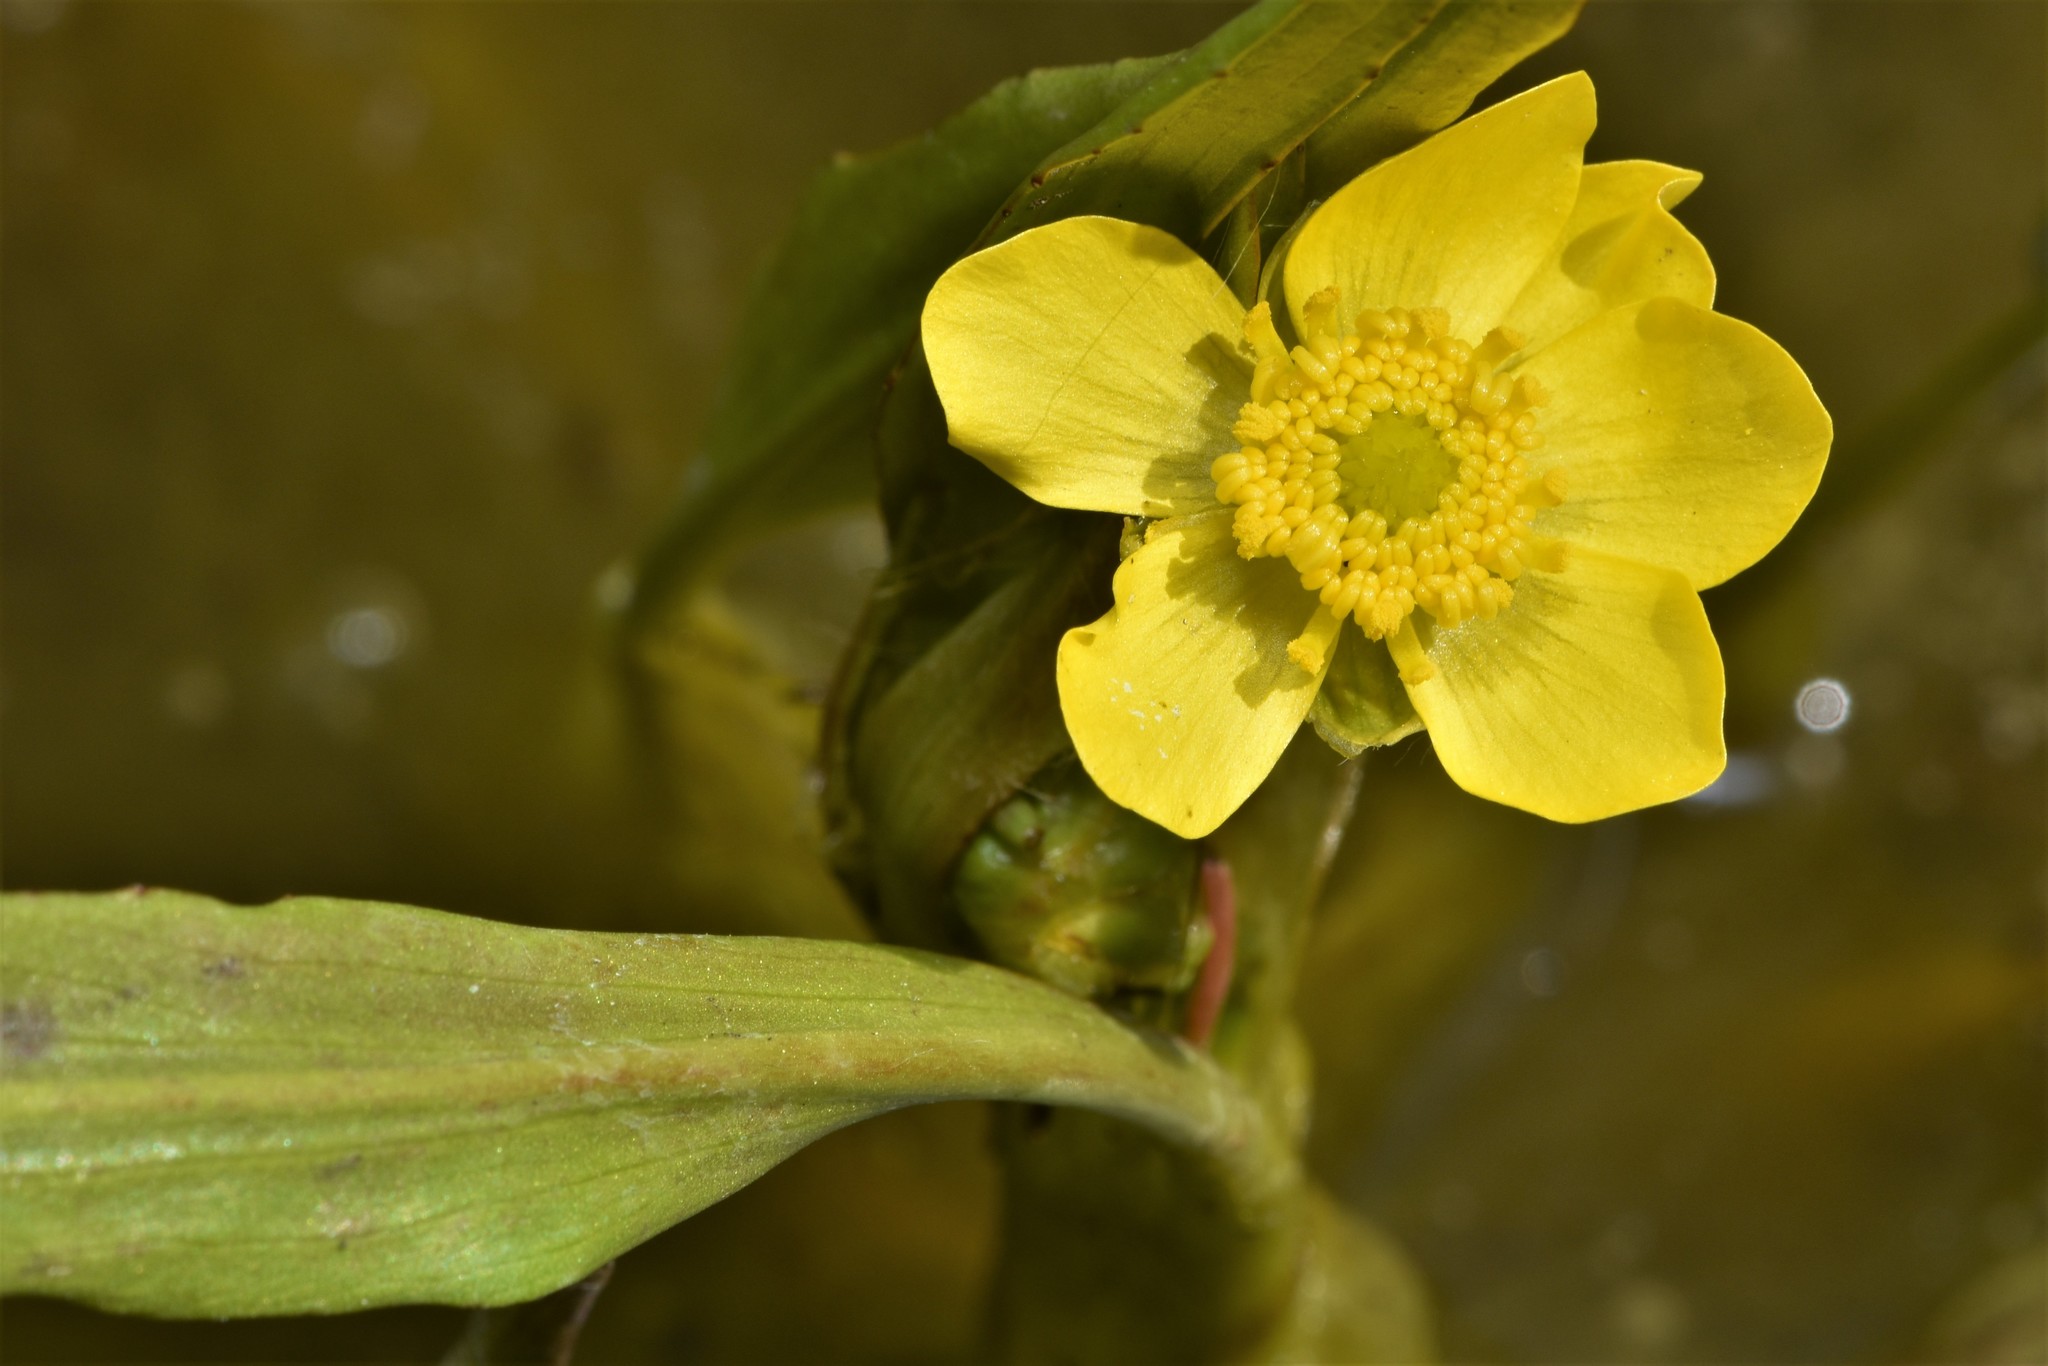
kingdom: Plantae
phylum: Tracheophyta
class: Magnoliopsida
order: Ranunculales
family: Ranunculaceae
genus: Ranunculus
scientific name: Ranunculus alismifolius
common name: Plantain-leaved buttercup
